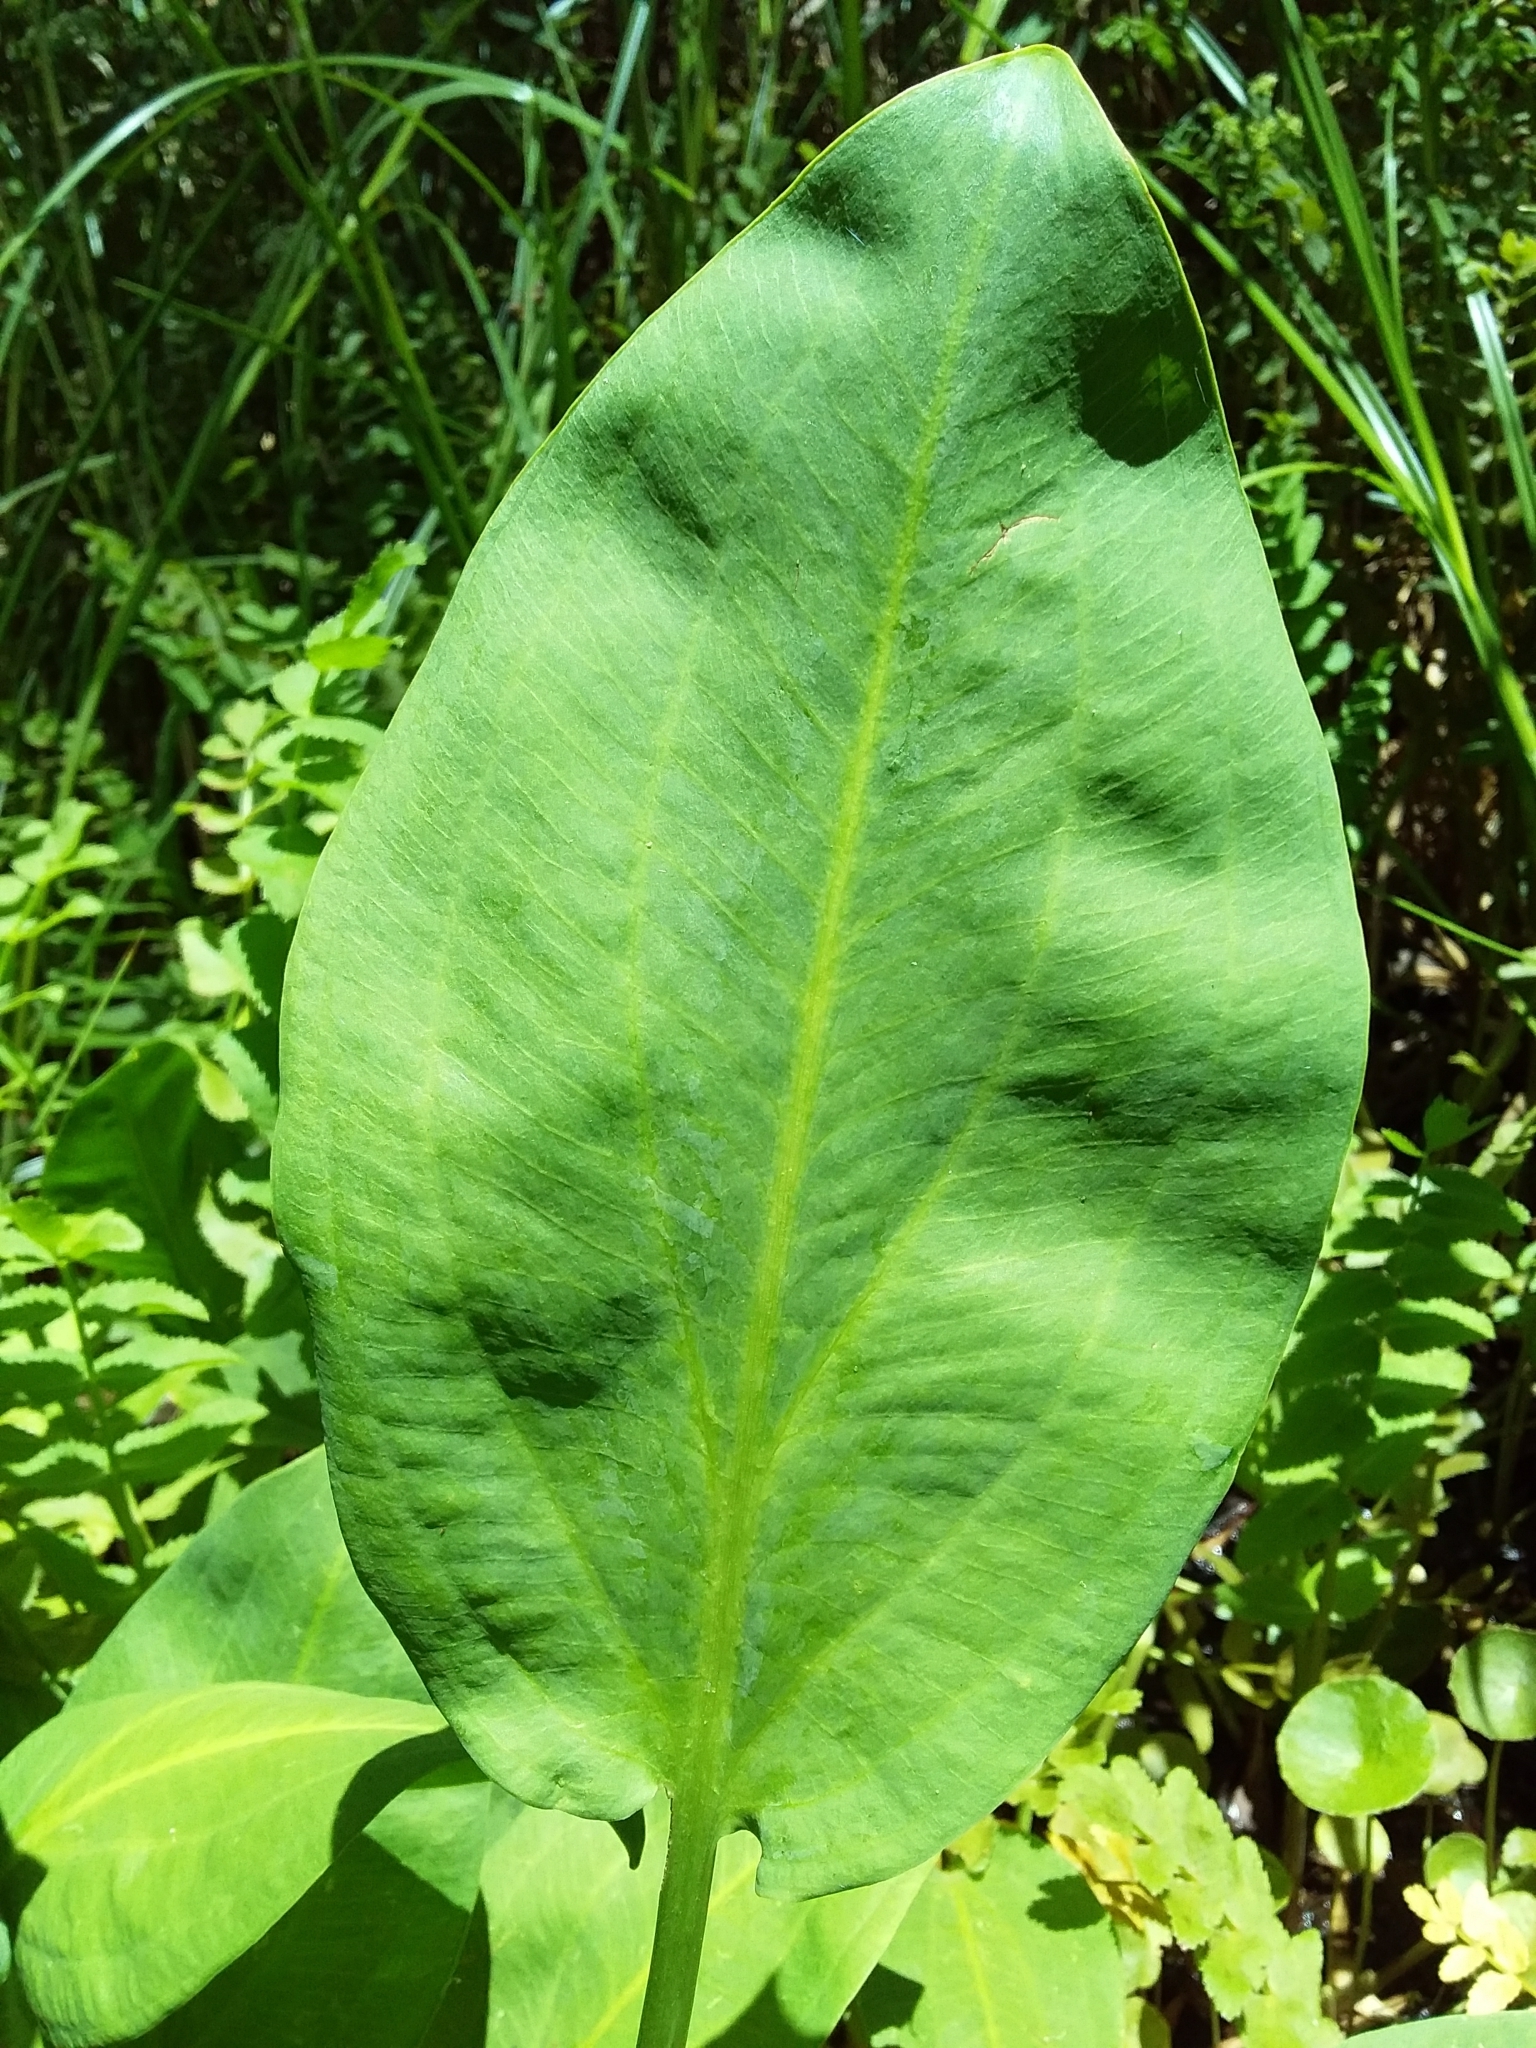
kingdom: Plantae
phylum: Tracheophyta
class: Liliopsida
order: Alismatales
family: Alismataceae
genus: Alisma
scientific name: Alisma plantago-aquatica
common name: Water-plantain
